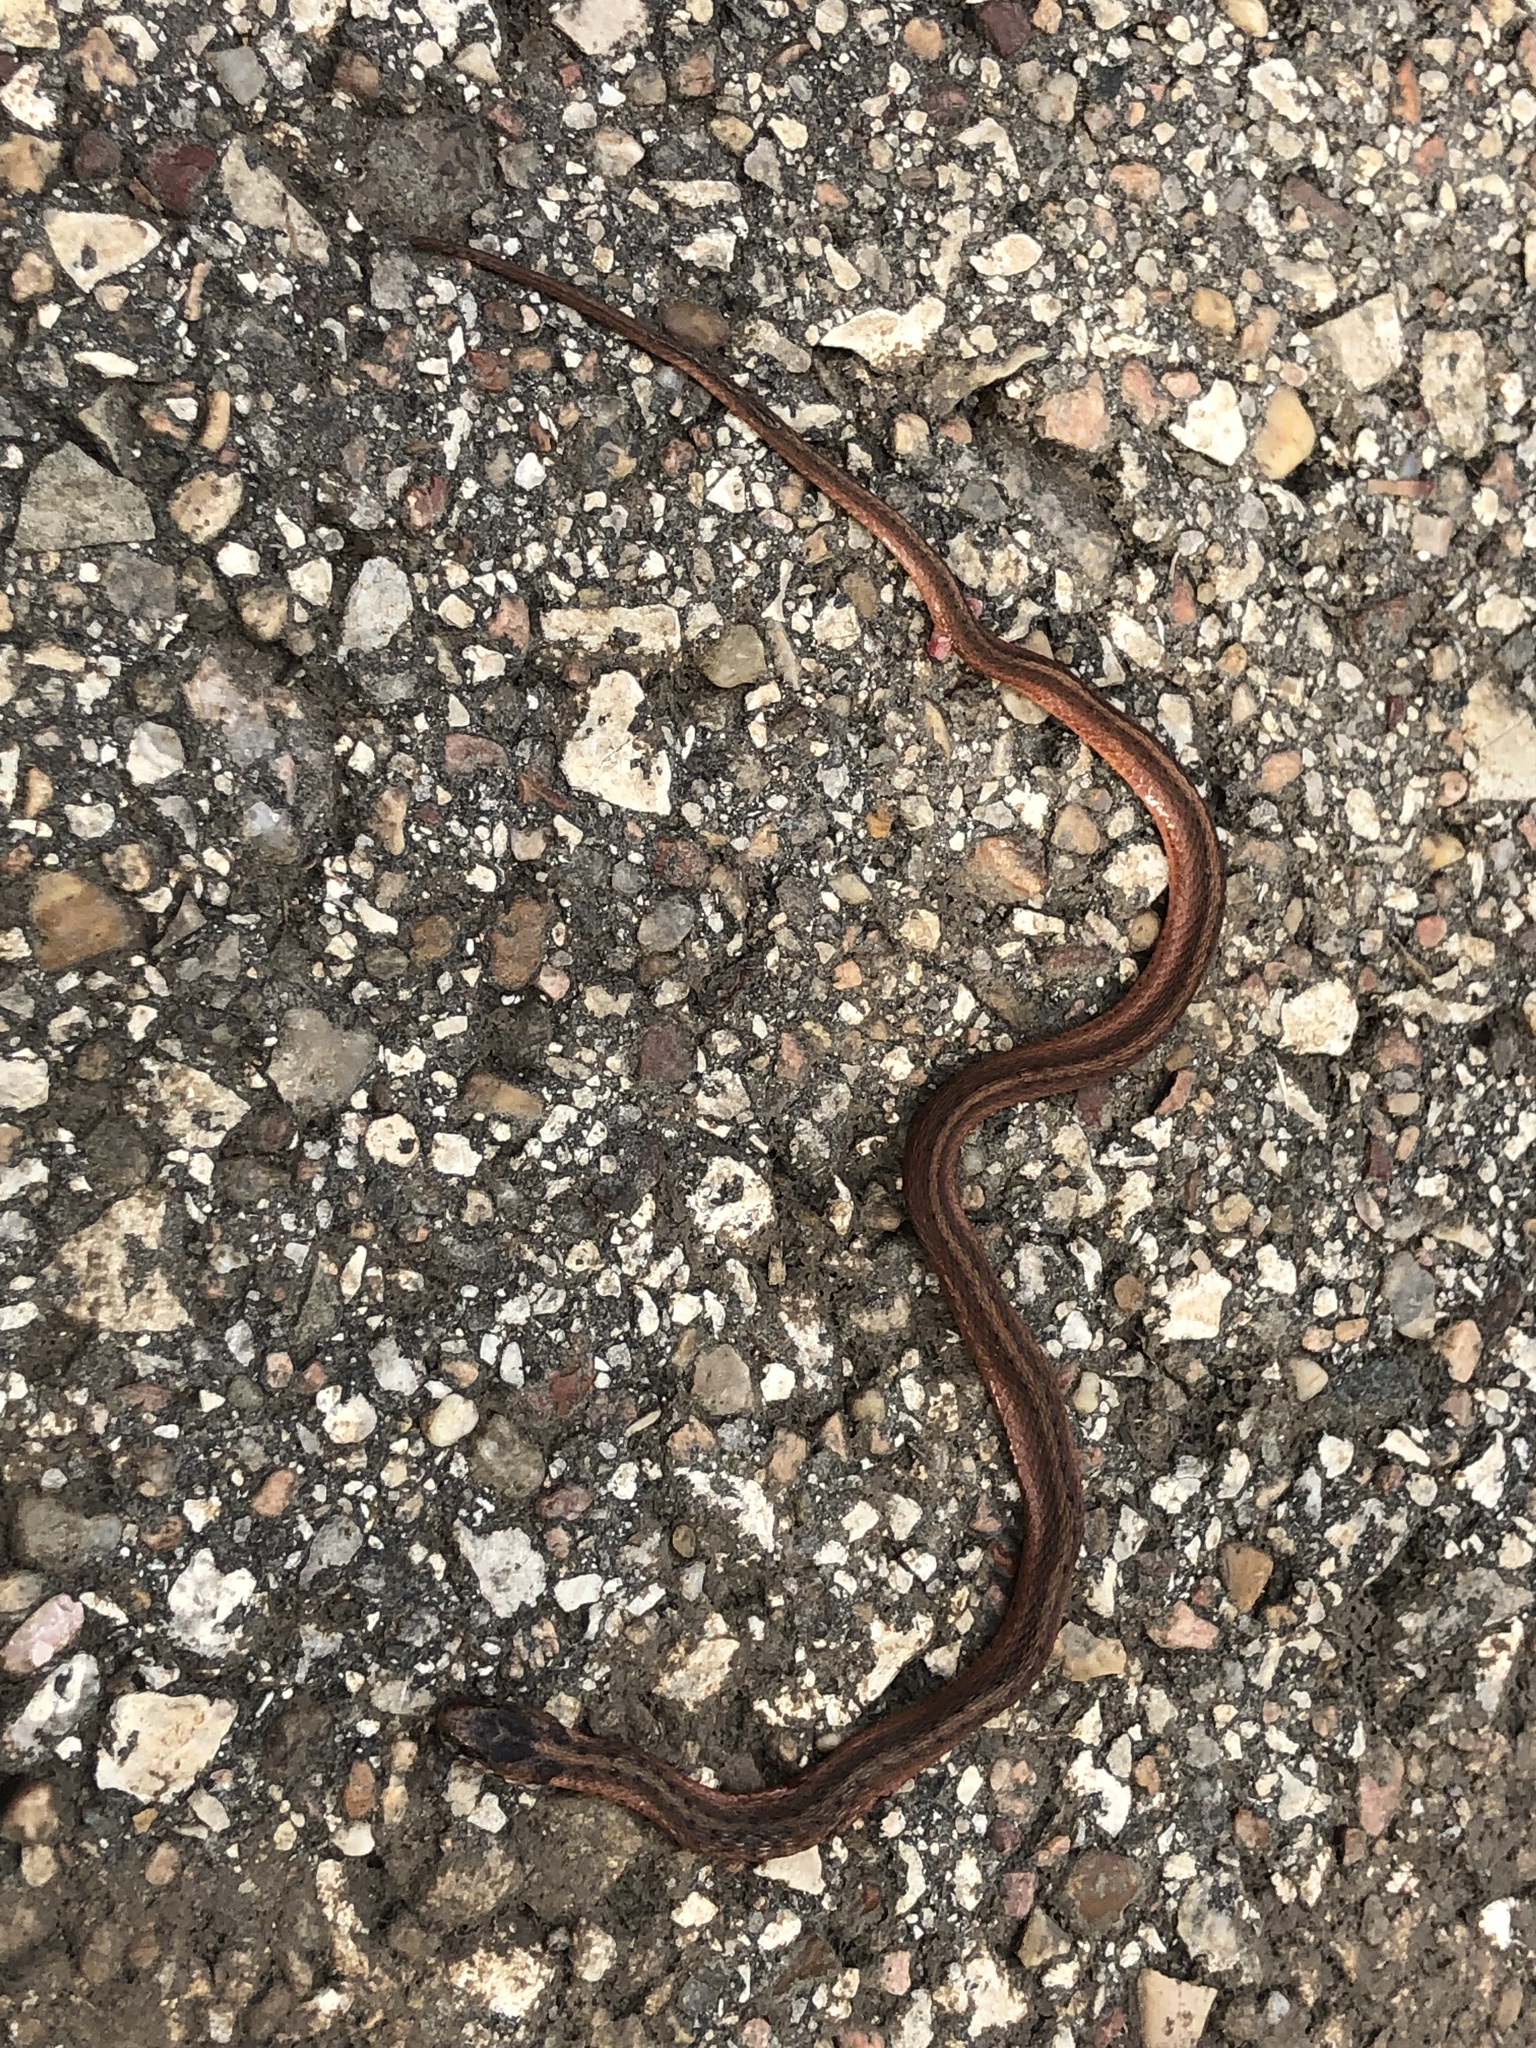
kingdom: Animalia
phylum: Chordata
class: Squamata
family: Colubridae
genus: Storeria
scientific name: Storeria dekayi
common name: (dekay’s) brown snake
